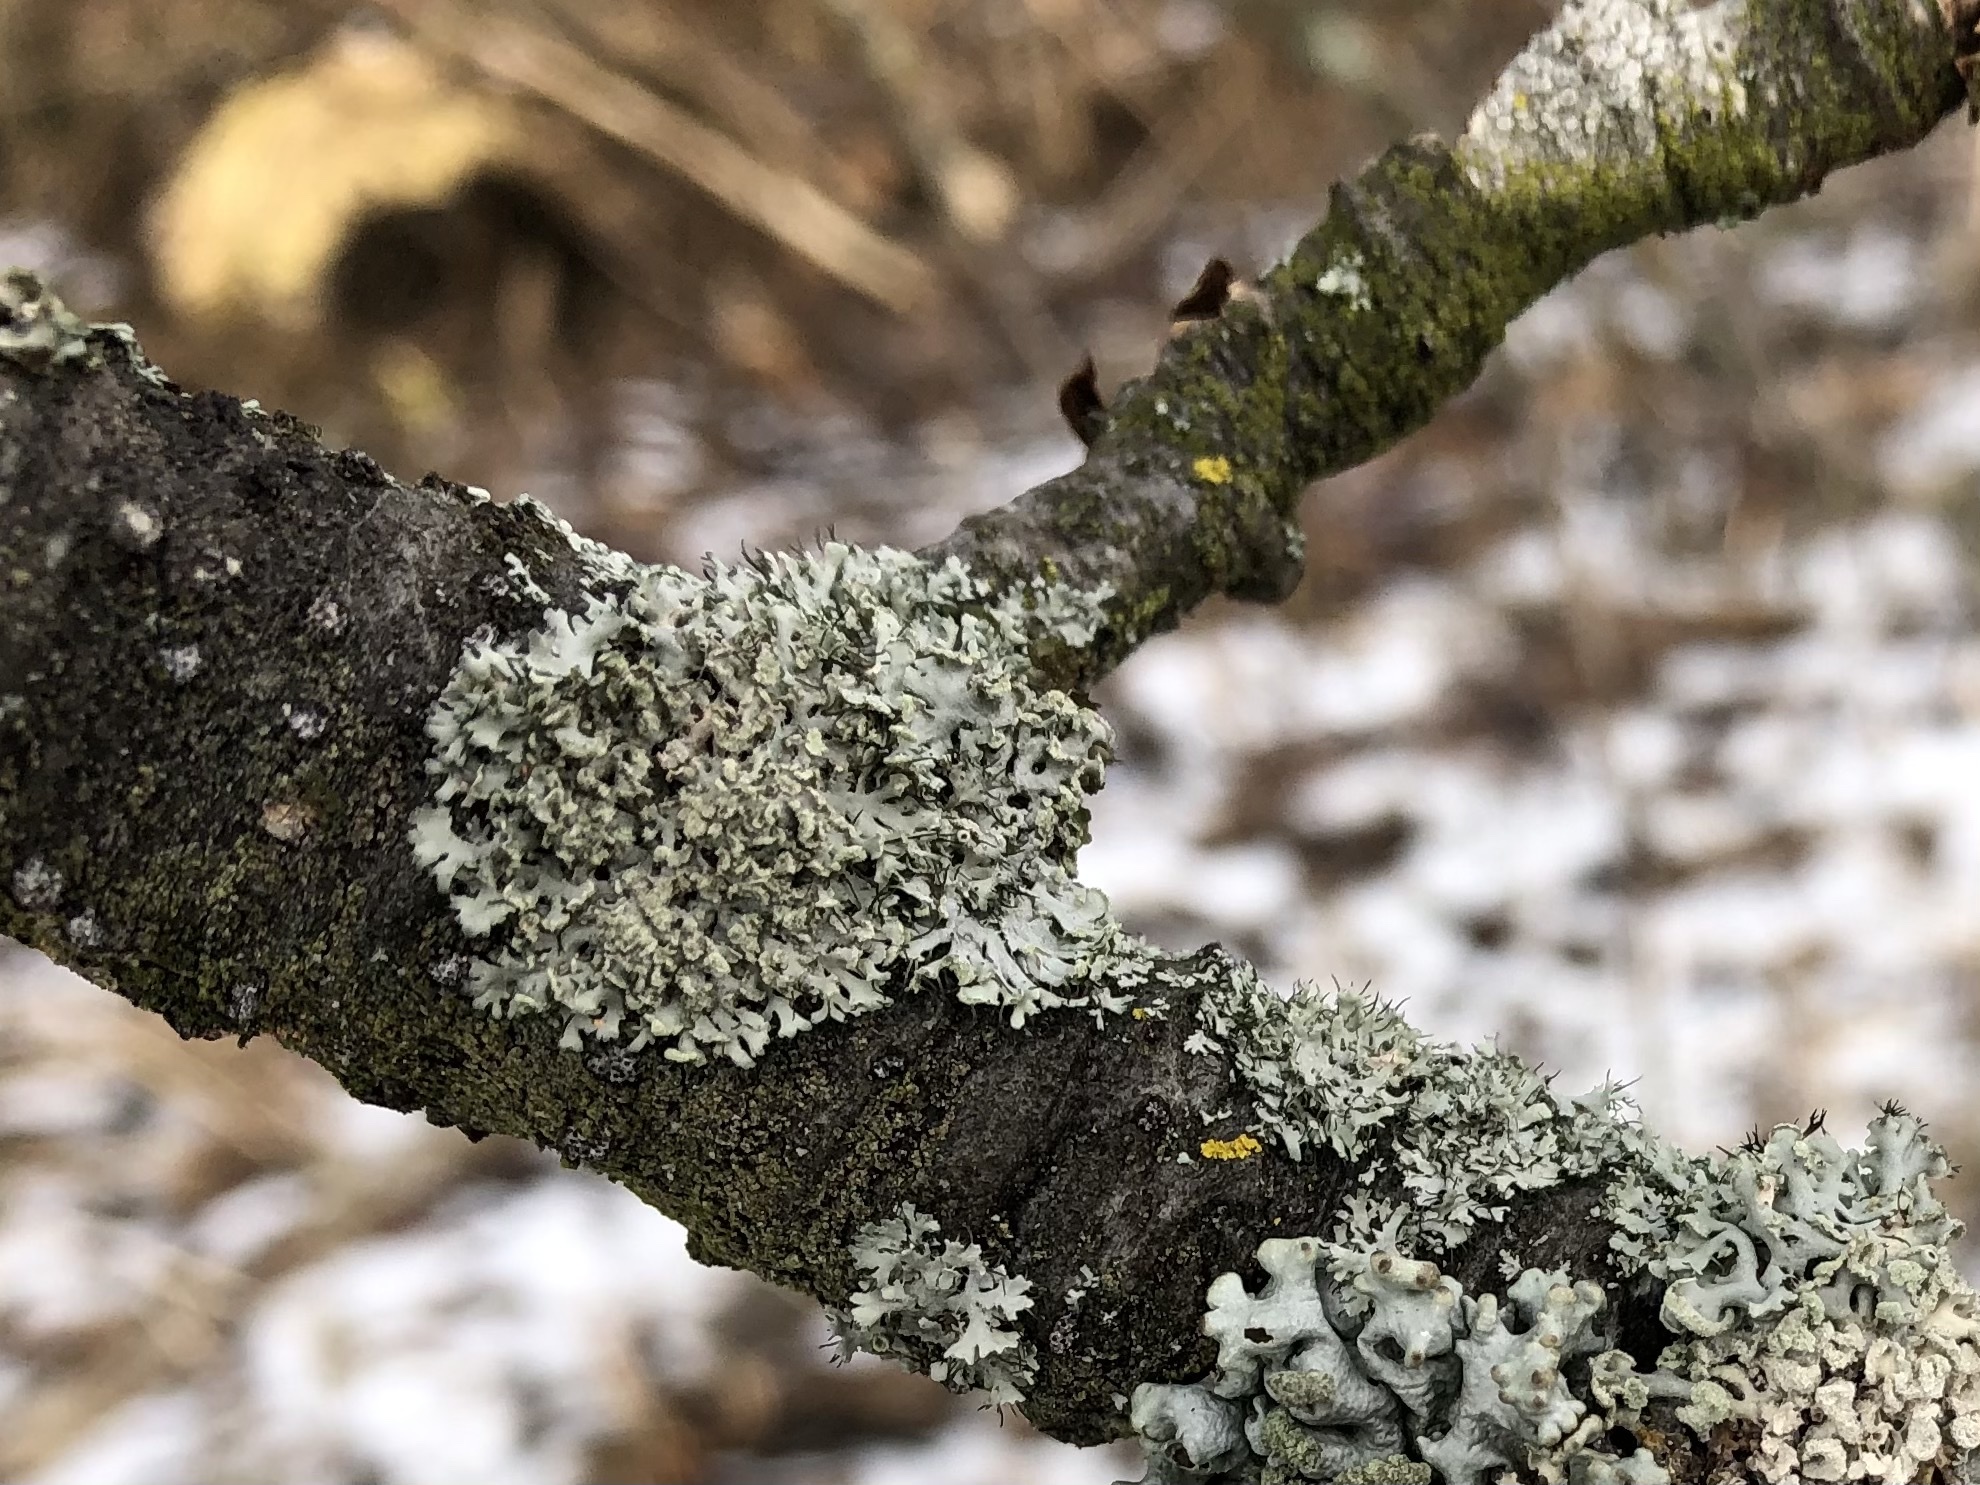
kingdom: Fungi
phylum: Ascomycota
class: Lecanoromycetes
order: Caliciales
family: Physciaceae
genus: Physcia
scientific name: Physcia tenella
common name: Fringed rosette lichen
